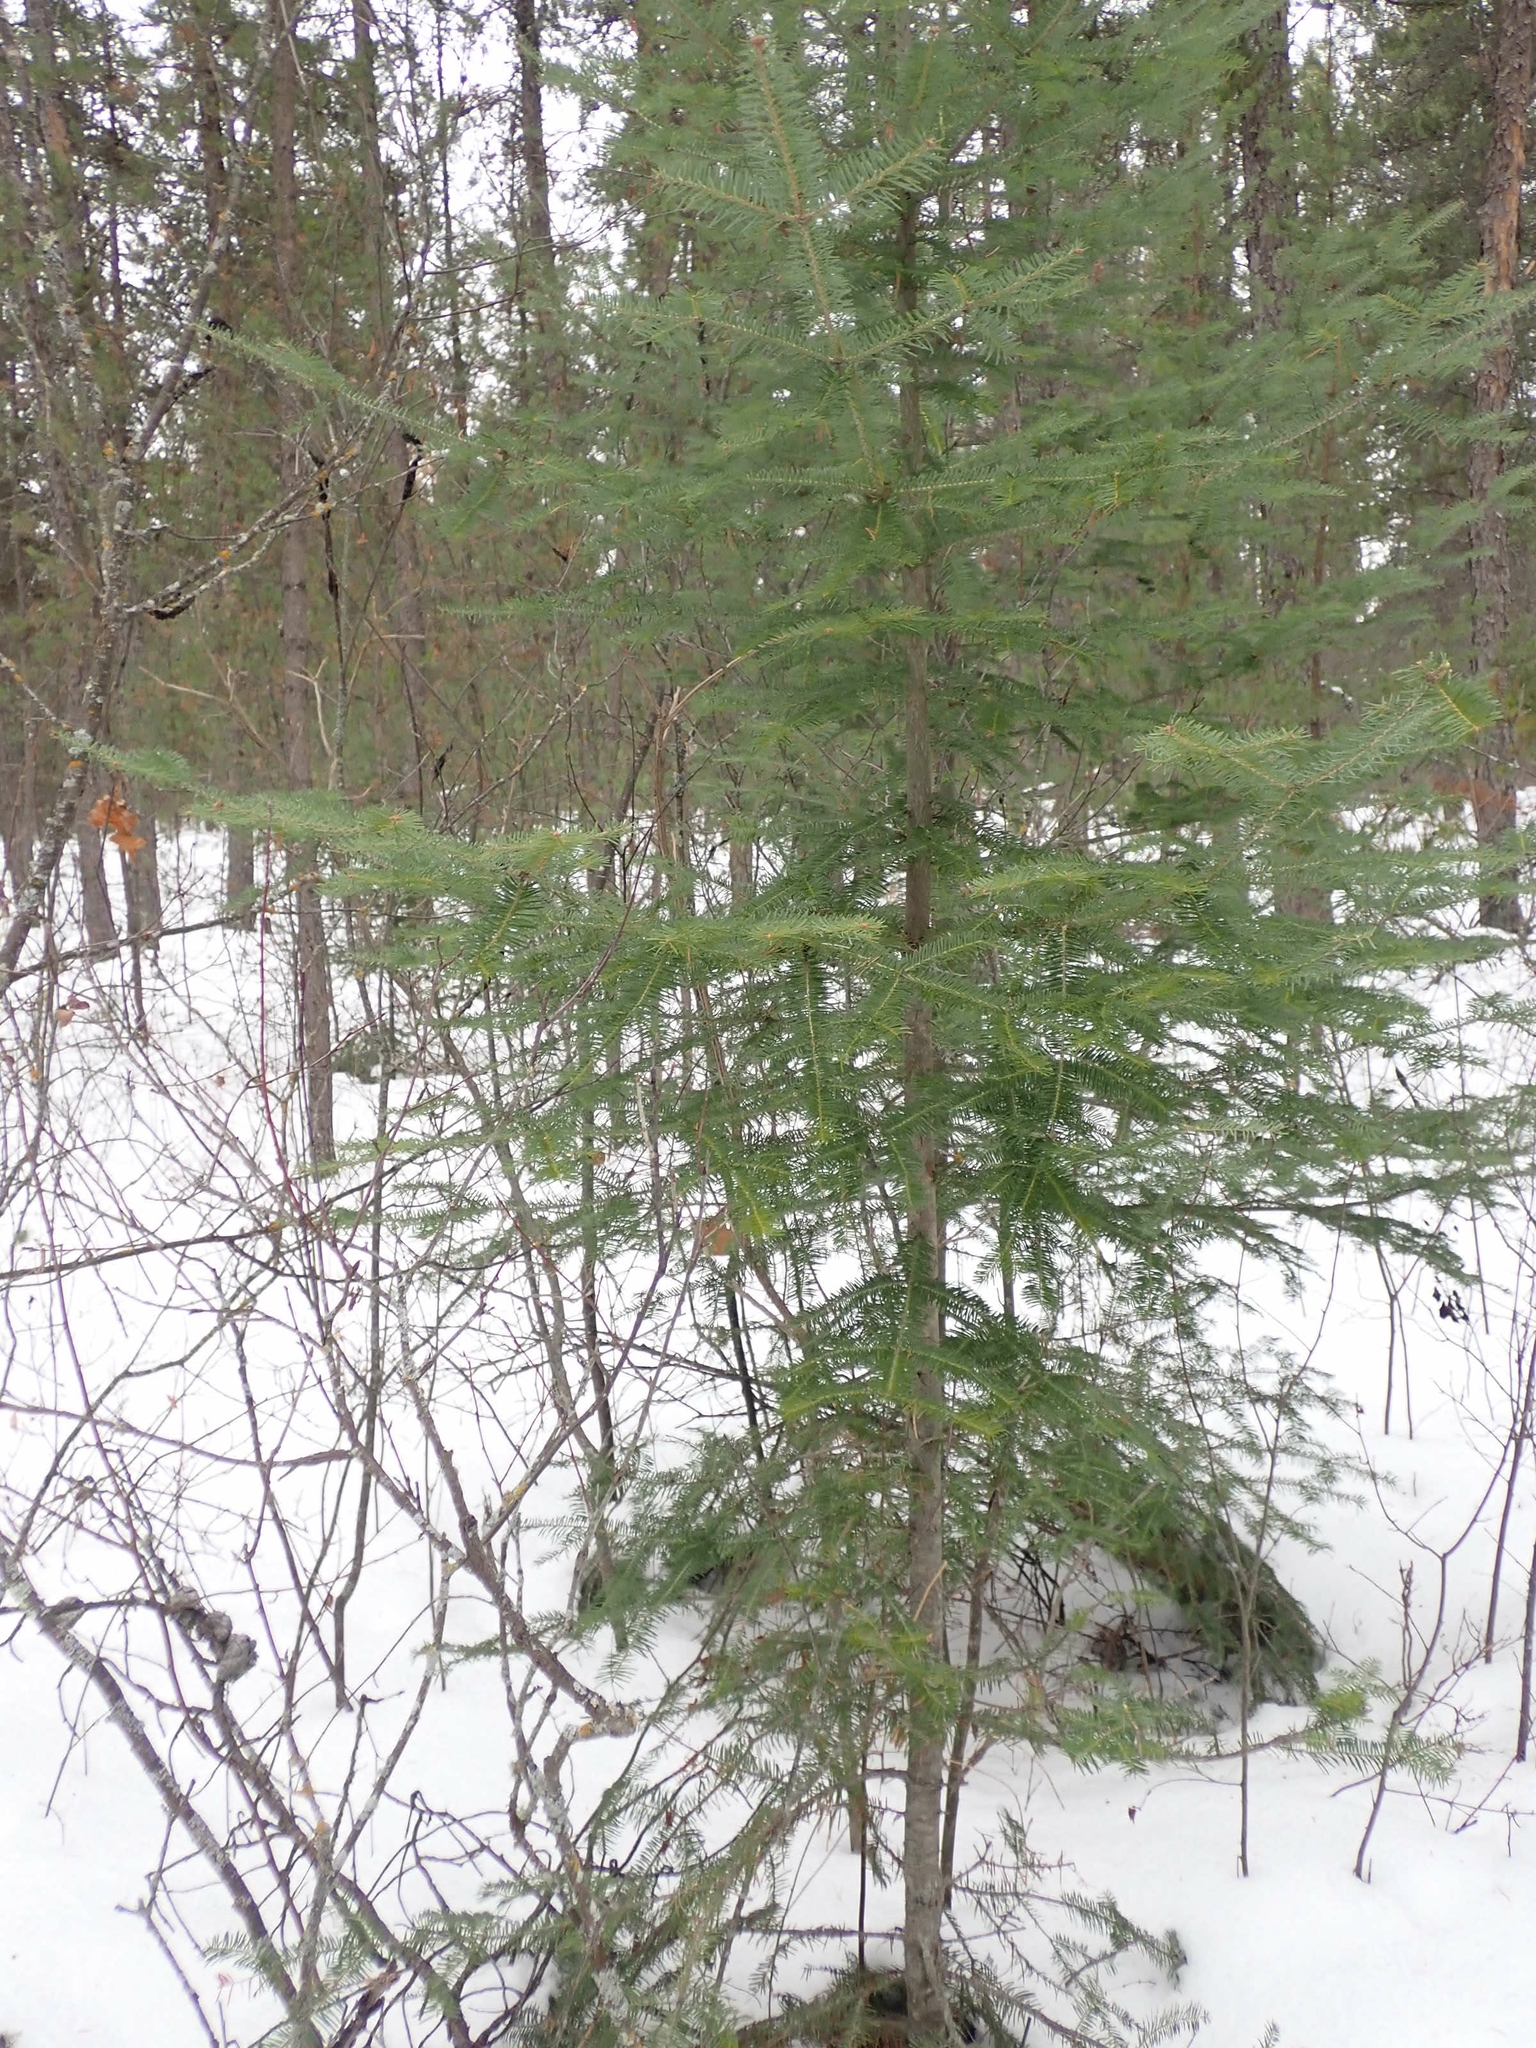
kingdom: Plantae
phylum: Tracheophyta
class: Pinopsida
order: Pinales
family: Pinaceae
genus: Abies
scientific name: Abies balsamea
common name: Balsam fir
